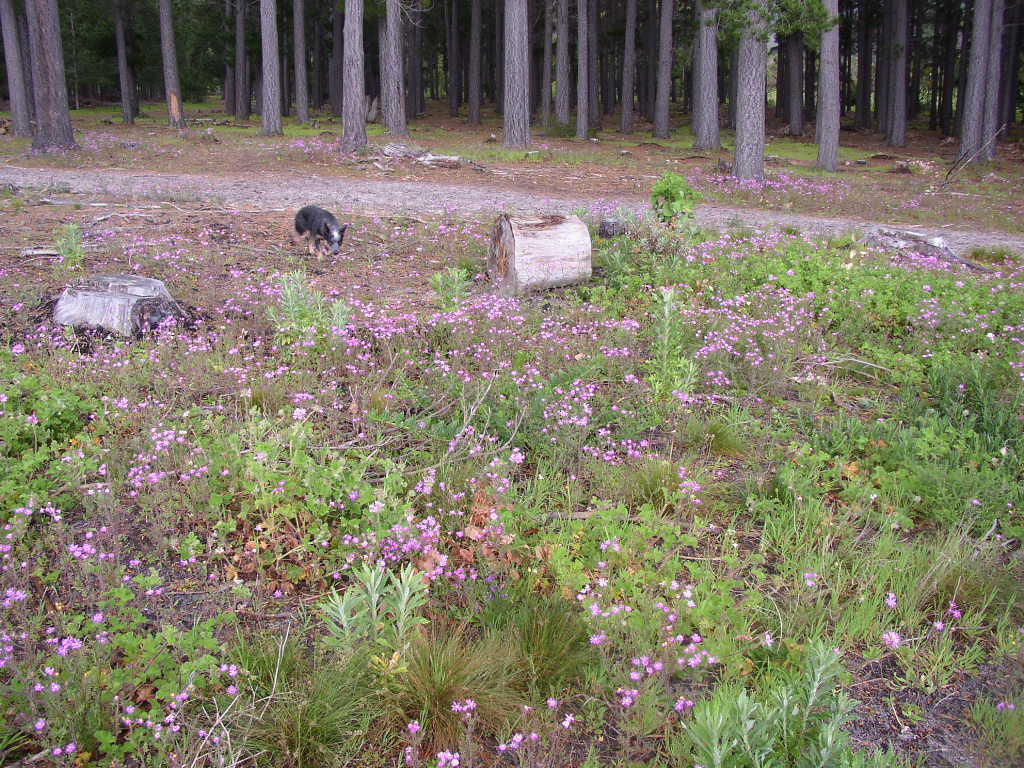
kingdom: Plantae
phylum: Tracheophyta
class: Magnoliopsida
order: Geraniales
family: Geraniaceae
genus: Pelargonium
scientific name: Pelargonium capitatum
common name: Rose scented geranium
